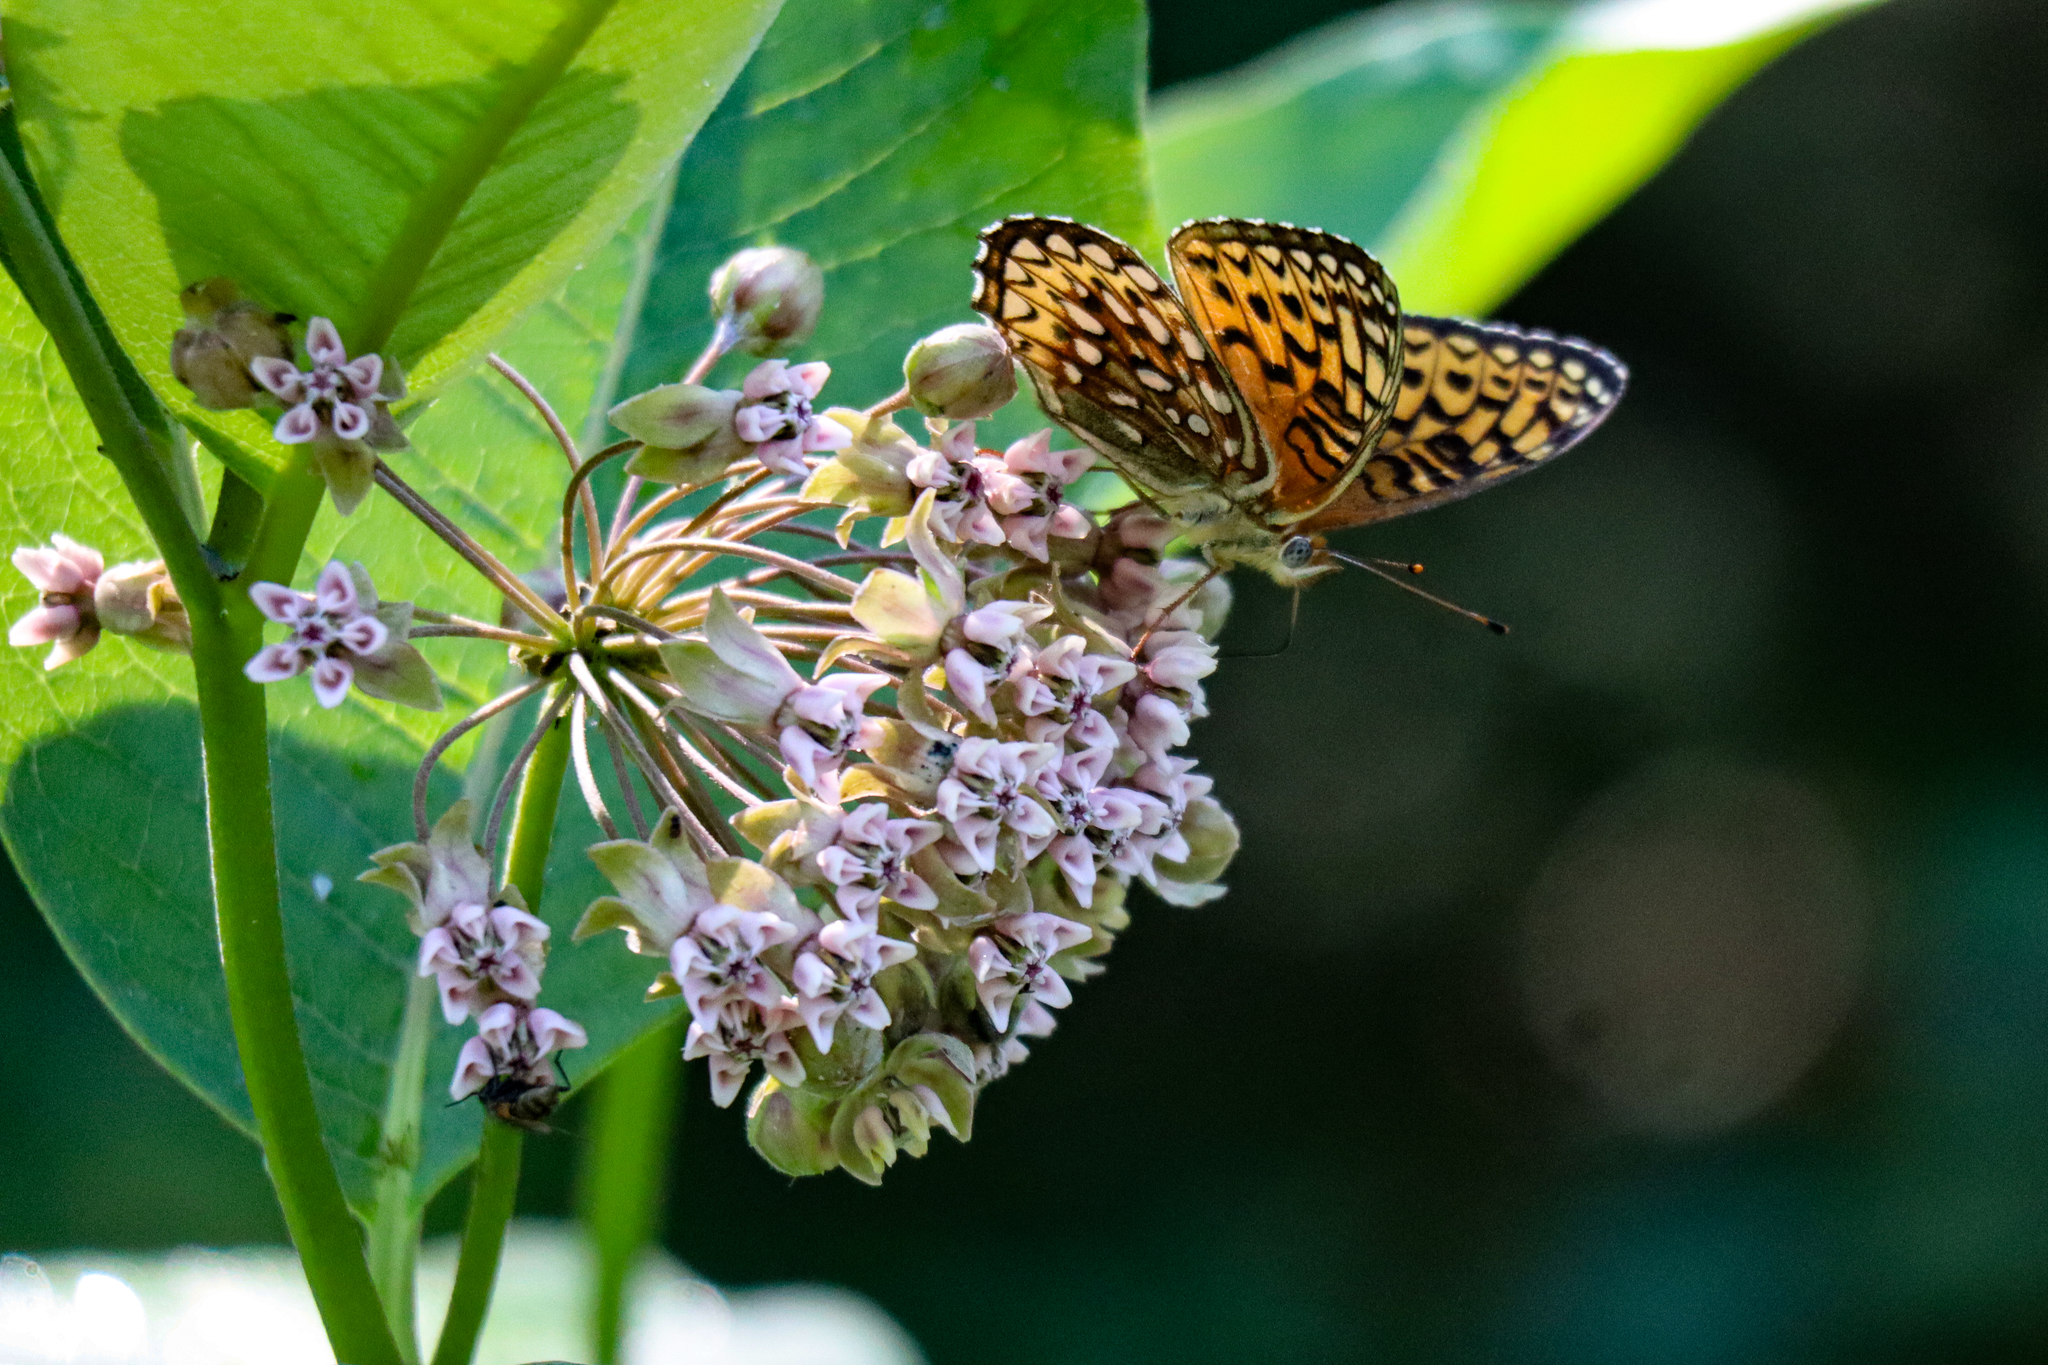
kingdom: Animalia
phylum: Arthropoda
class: Insecta
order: Lepidoptera
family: Nymphalidae
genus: Speyeria
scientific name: Speyeria atlantis
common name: Atlantis fritillary
